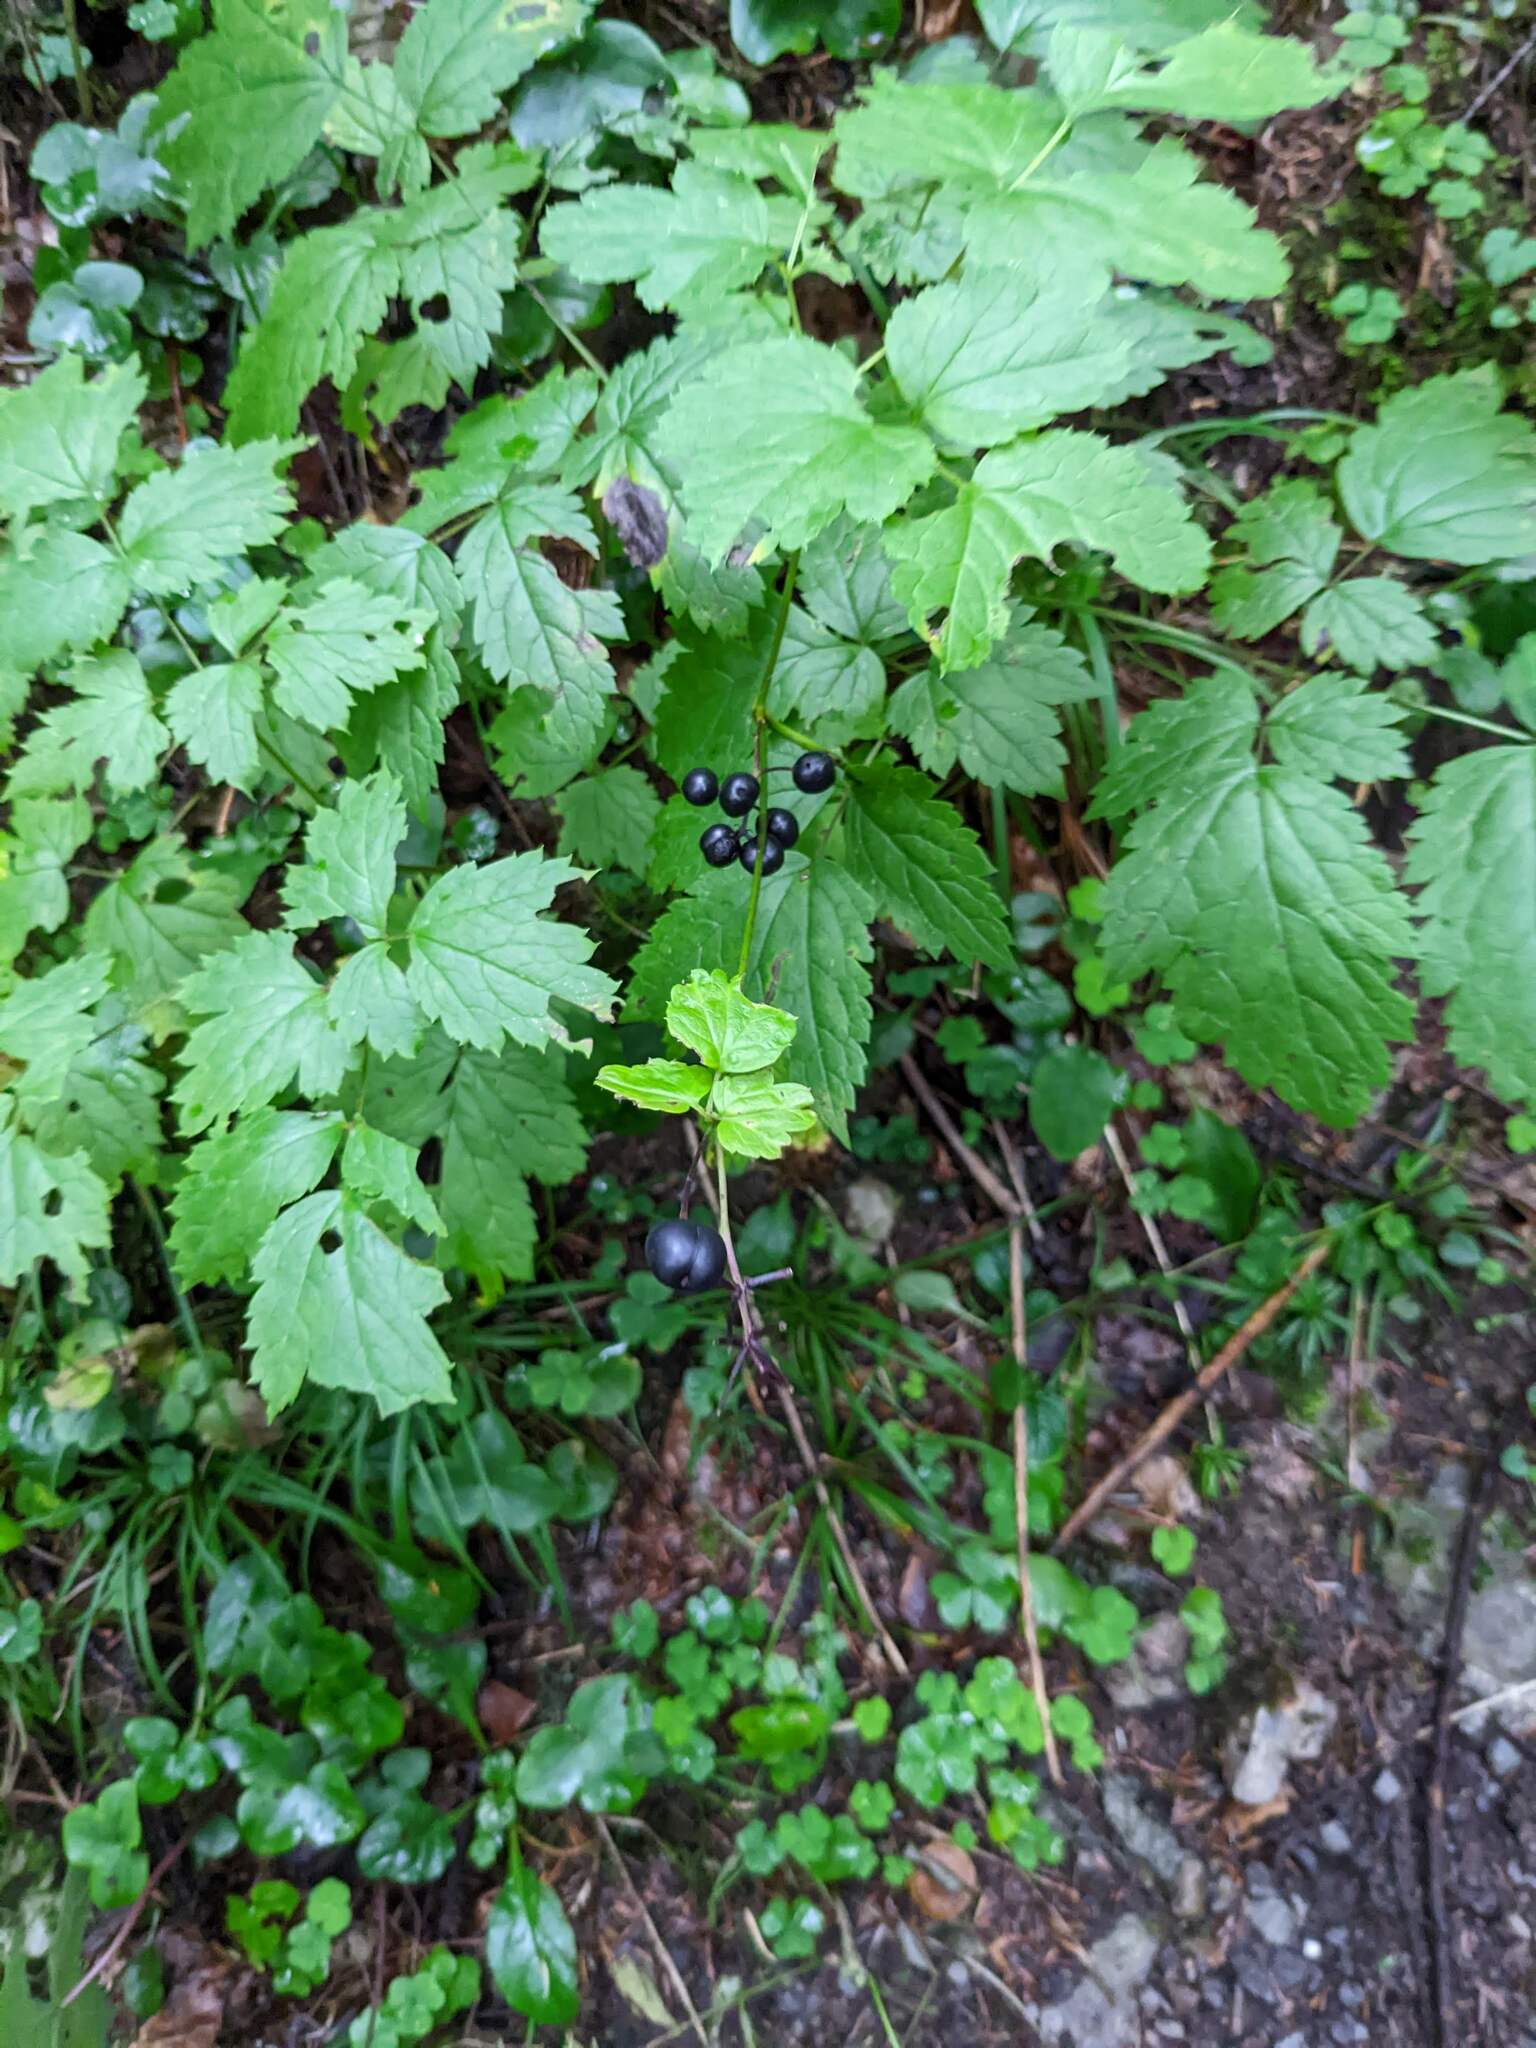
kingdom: Plantae
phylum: Tracheophyta
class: Magnoliopsida
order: Ranunculales
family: Ranunculaceae
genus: Actaea
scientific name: Actaea spicata
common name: Baneberry
